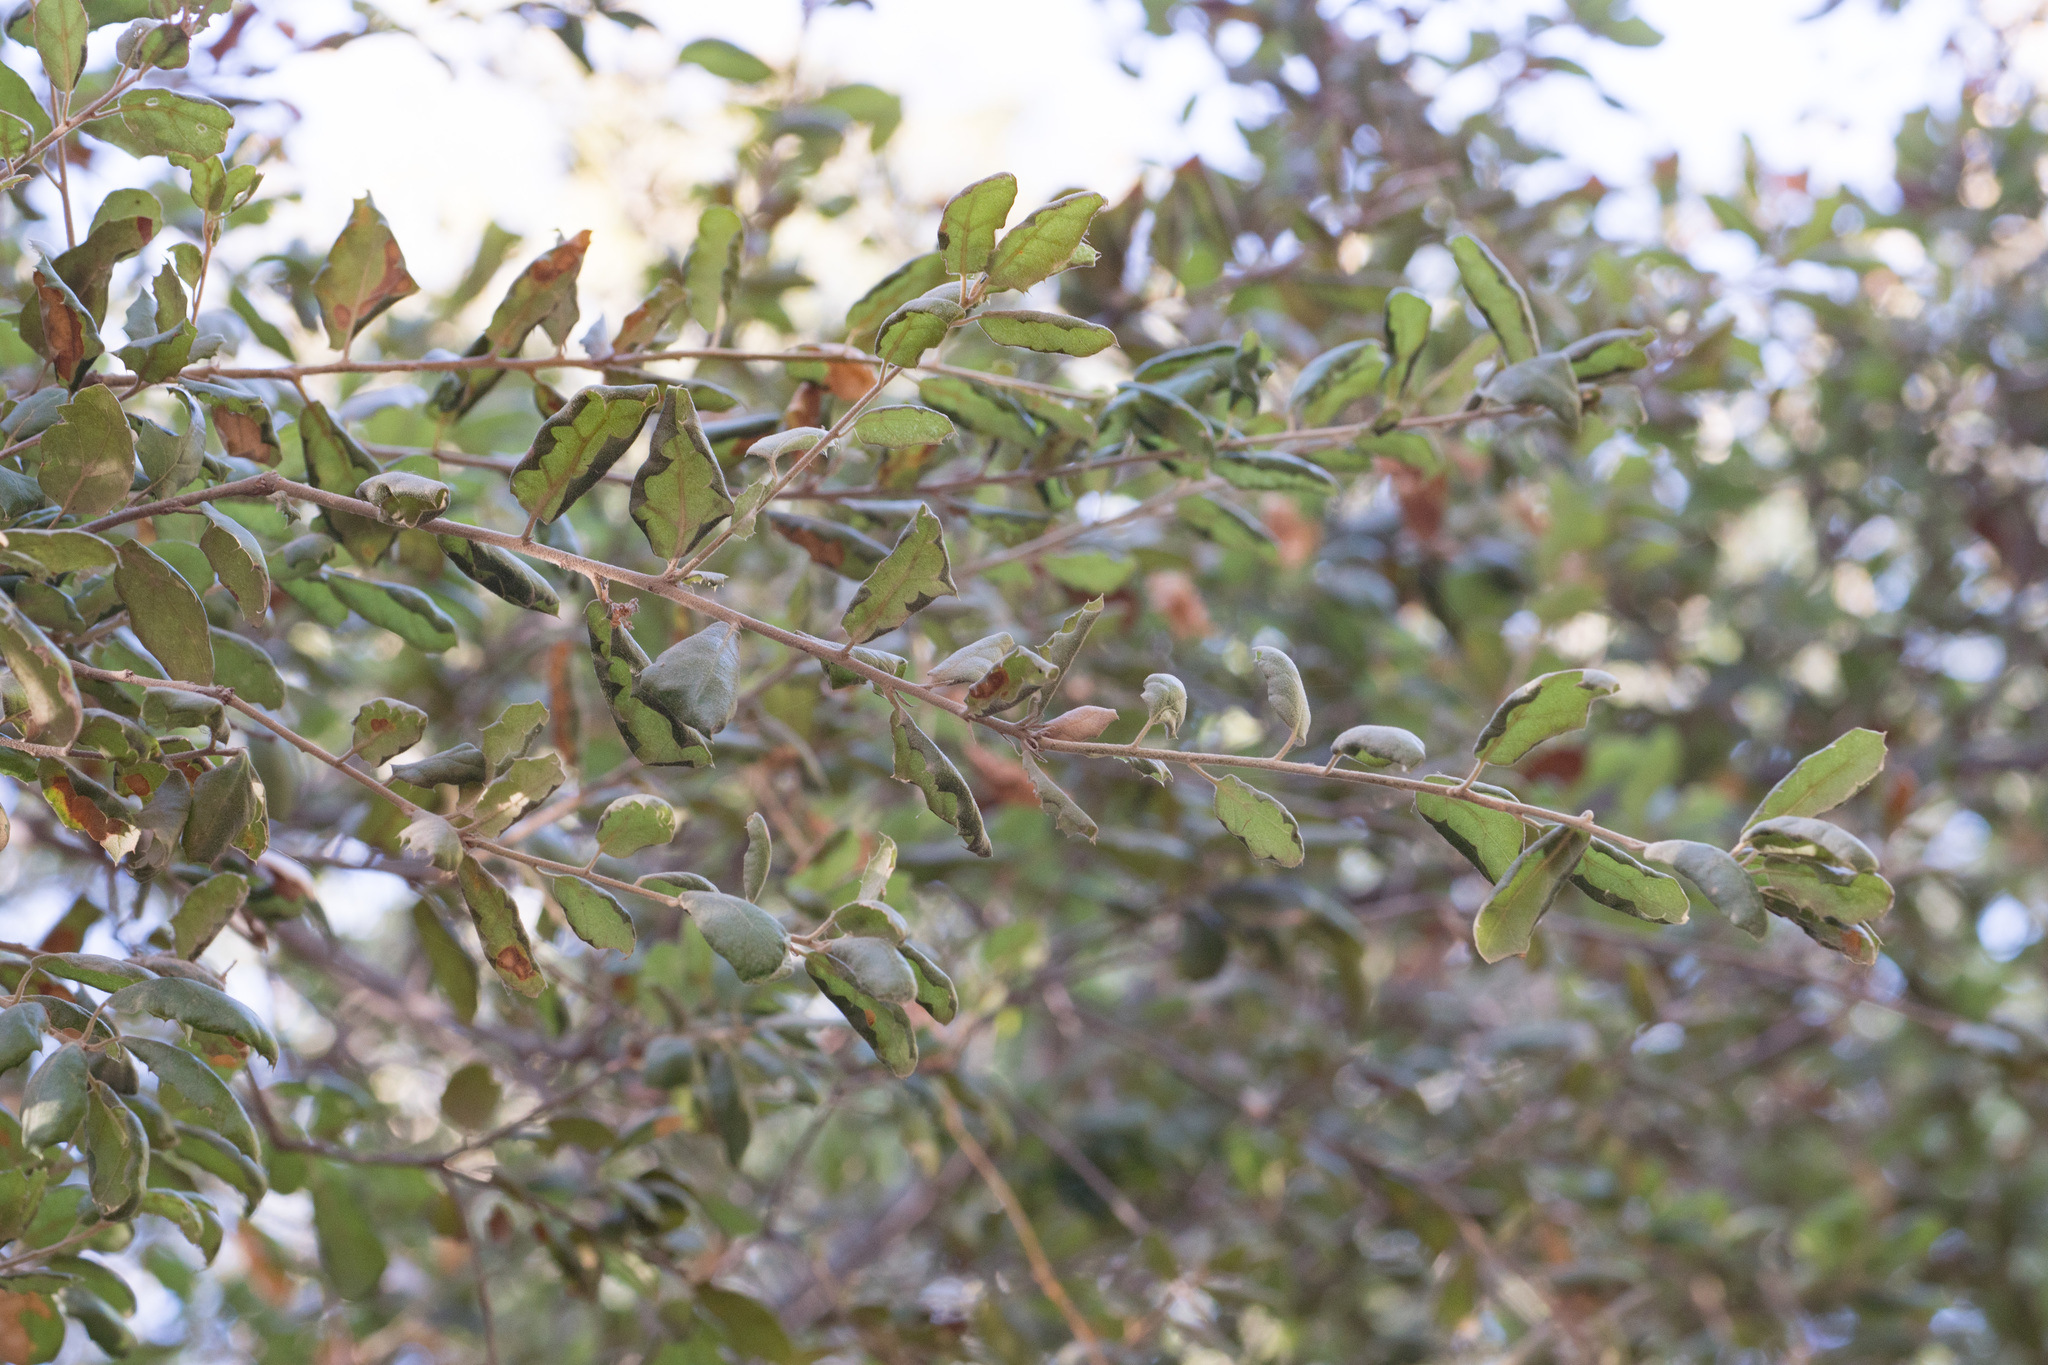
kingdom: Plantae
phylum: Tracheophyta
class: Magnoliopsida
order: Fagales
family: Fagaceae
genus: Quercus
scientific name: Quercus agrifolia
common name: California live oak
